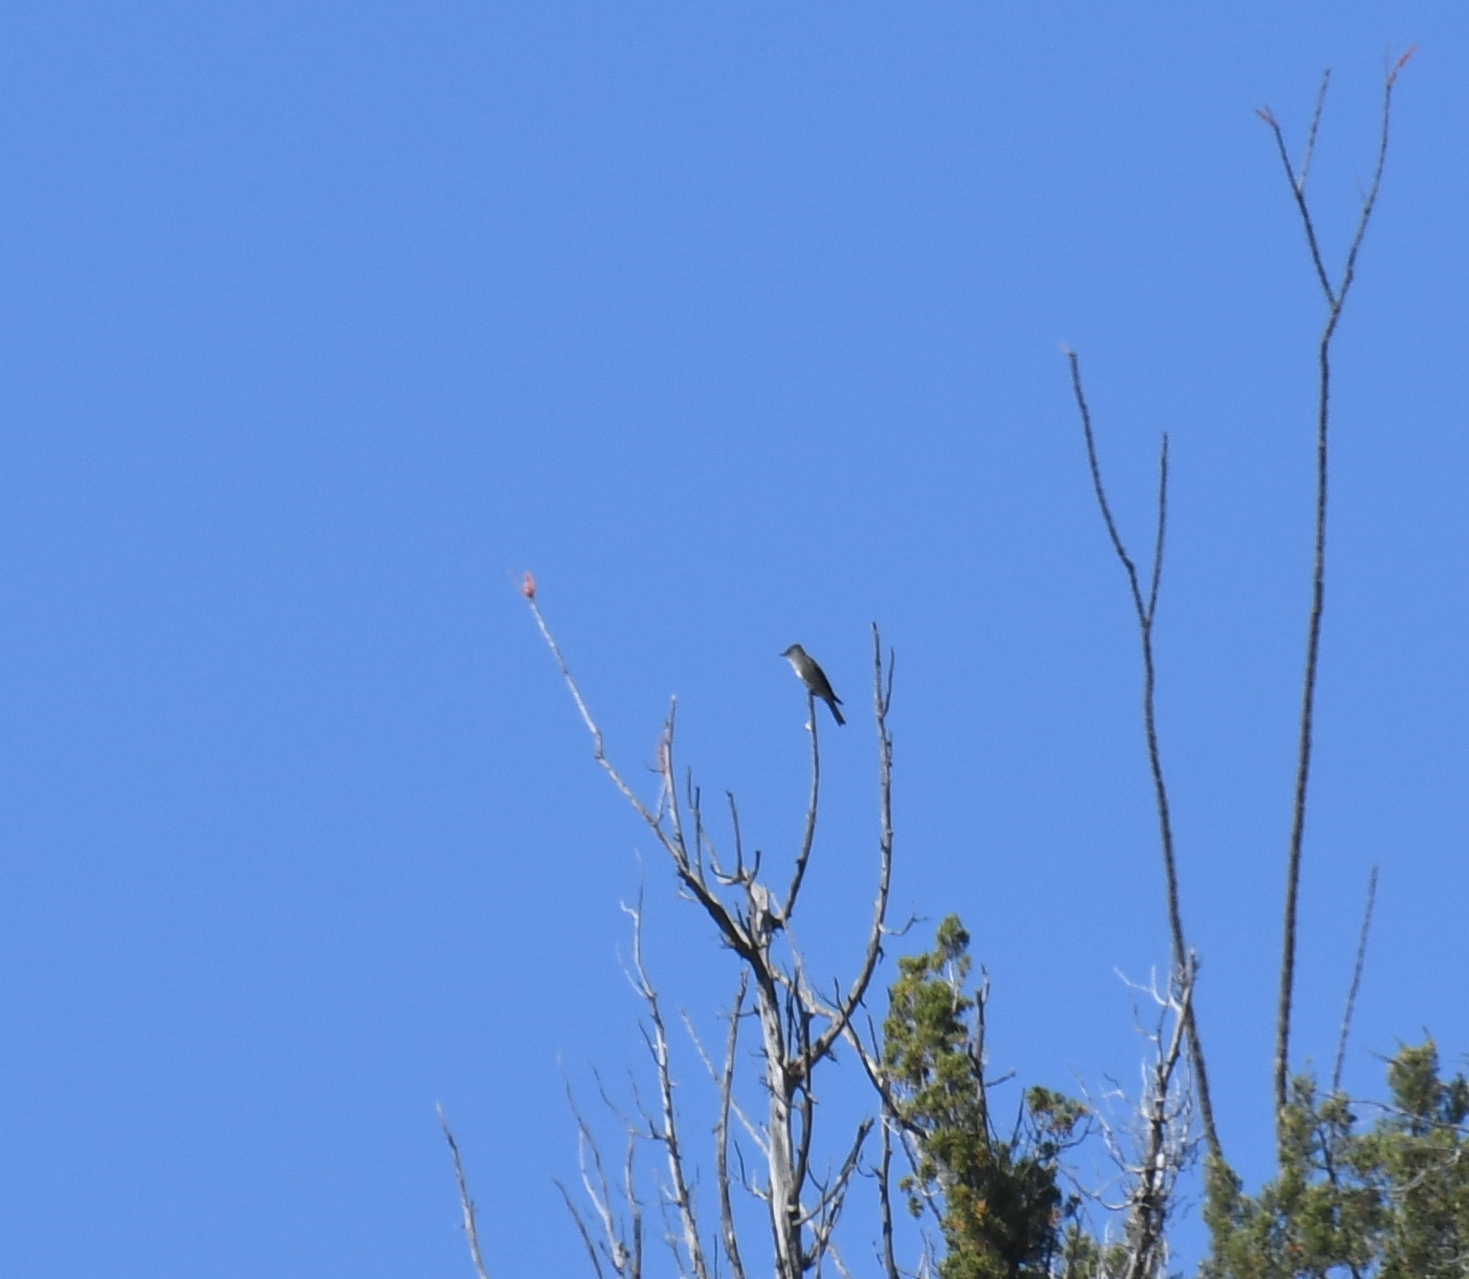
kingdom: Animalia
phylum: Chordata
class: Aves
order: Passeriformes
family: Tyrannidae
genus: Contopus
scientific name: Contopus cooperi
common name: Olive-sided flycatcher
